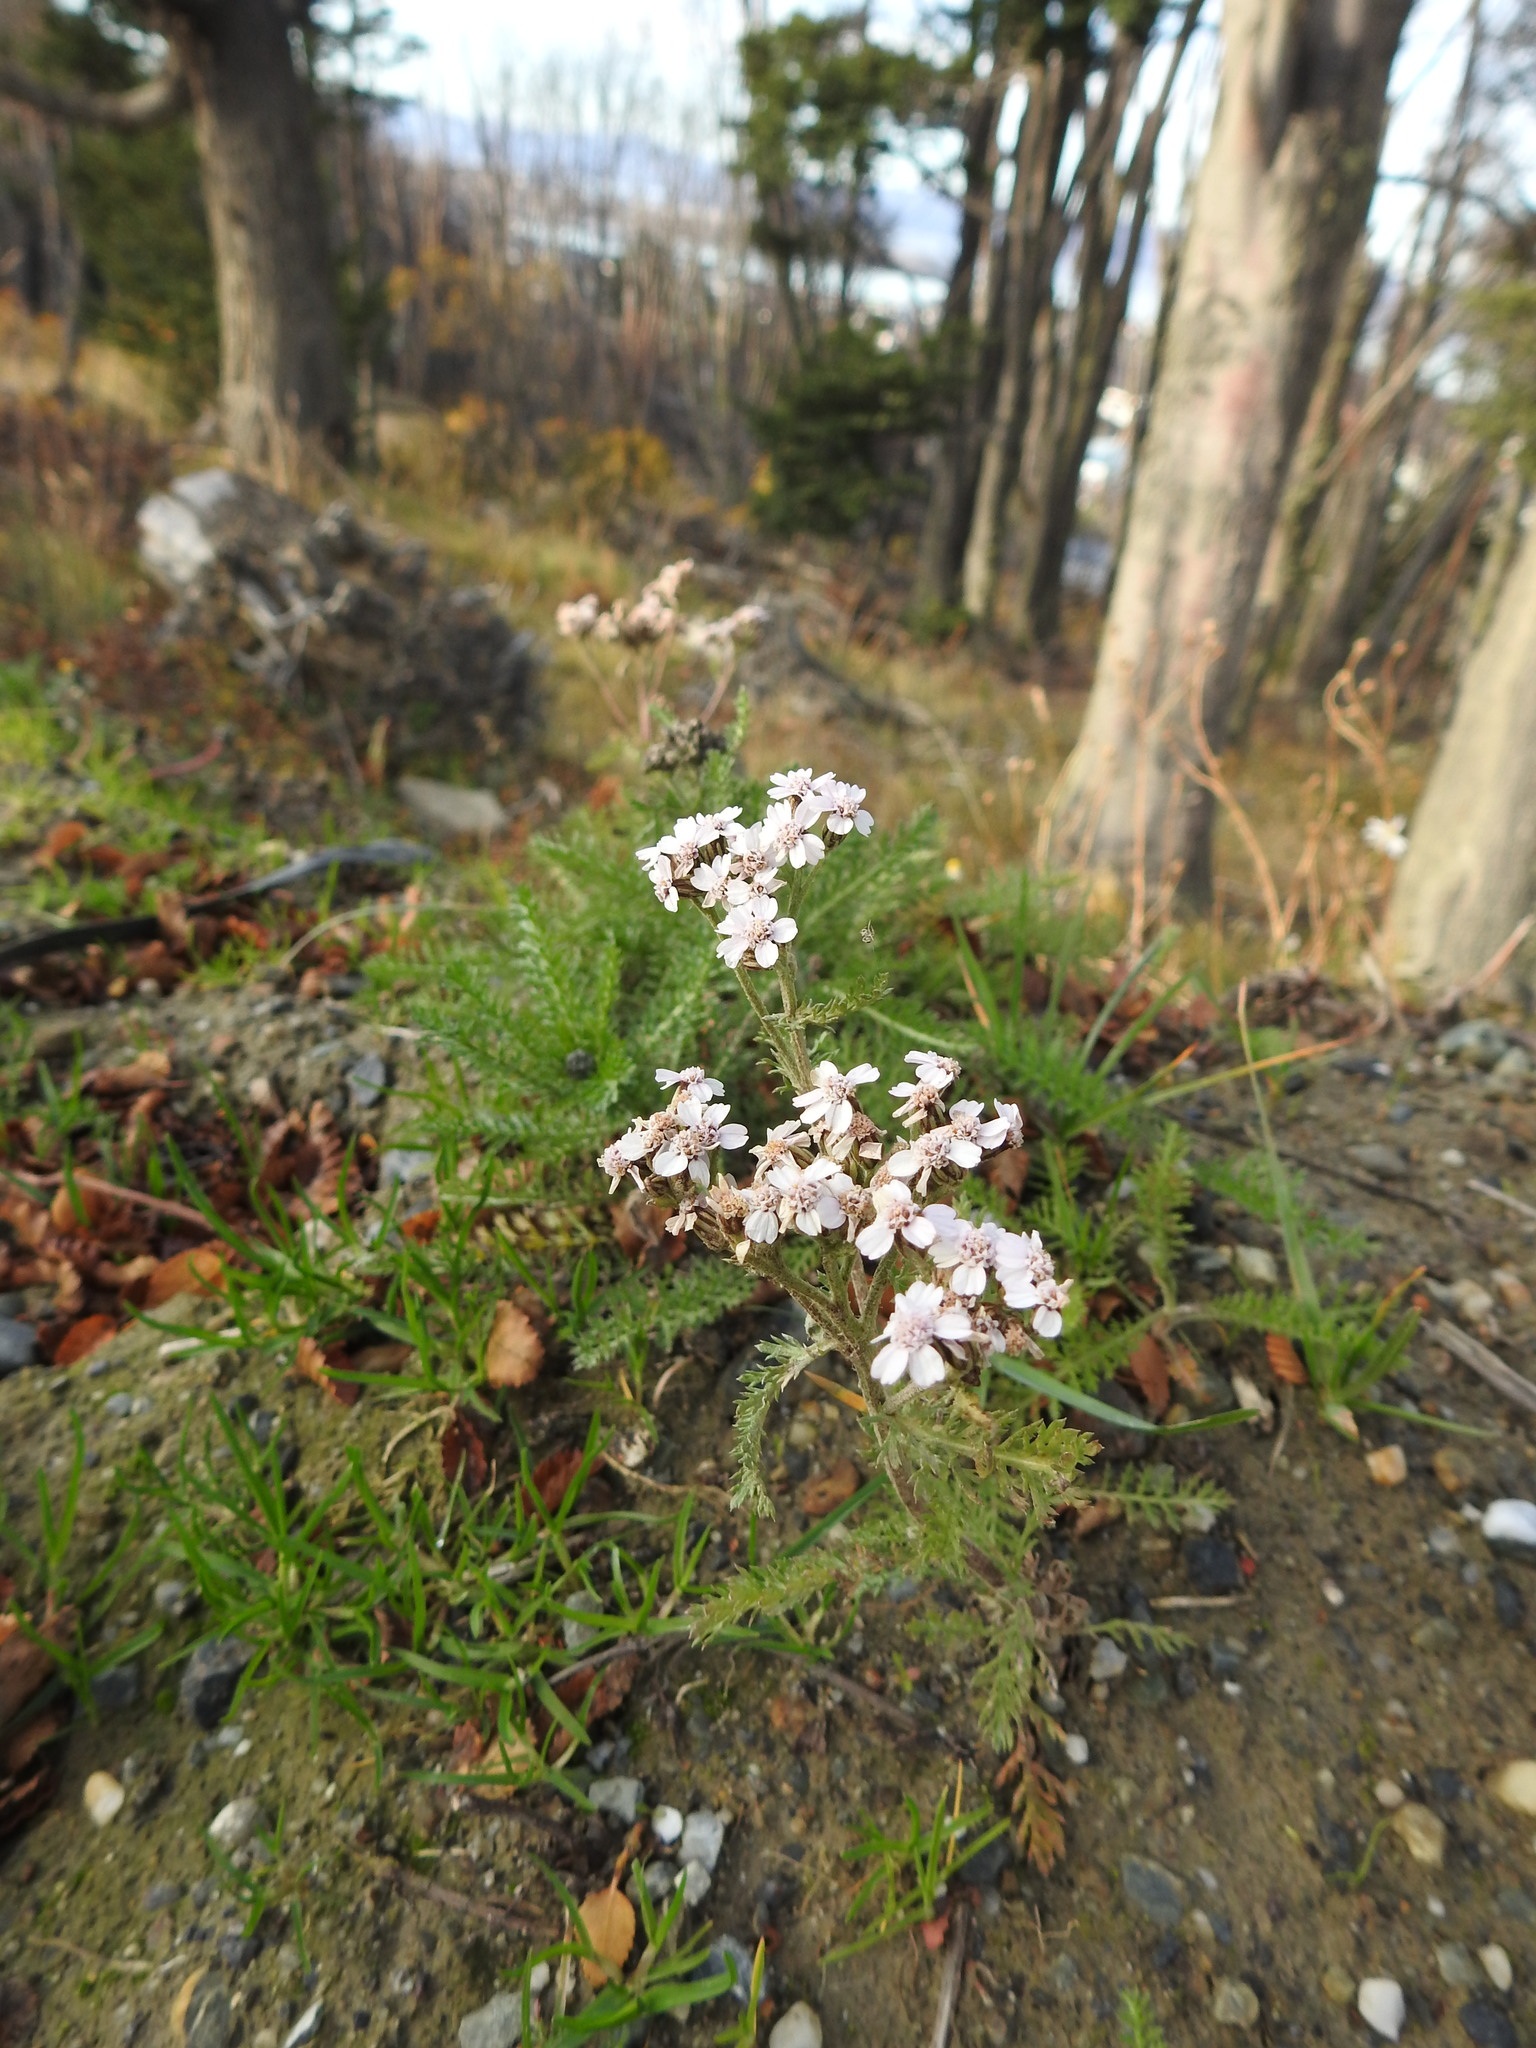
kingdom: Plantae
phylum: Tracheophyta
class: Magnoliopsida
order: Asterales
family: Asteraceae
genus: Achillea
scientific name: Achillea millefolium
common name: Yarrow
